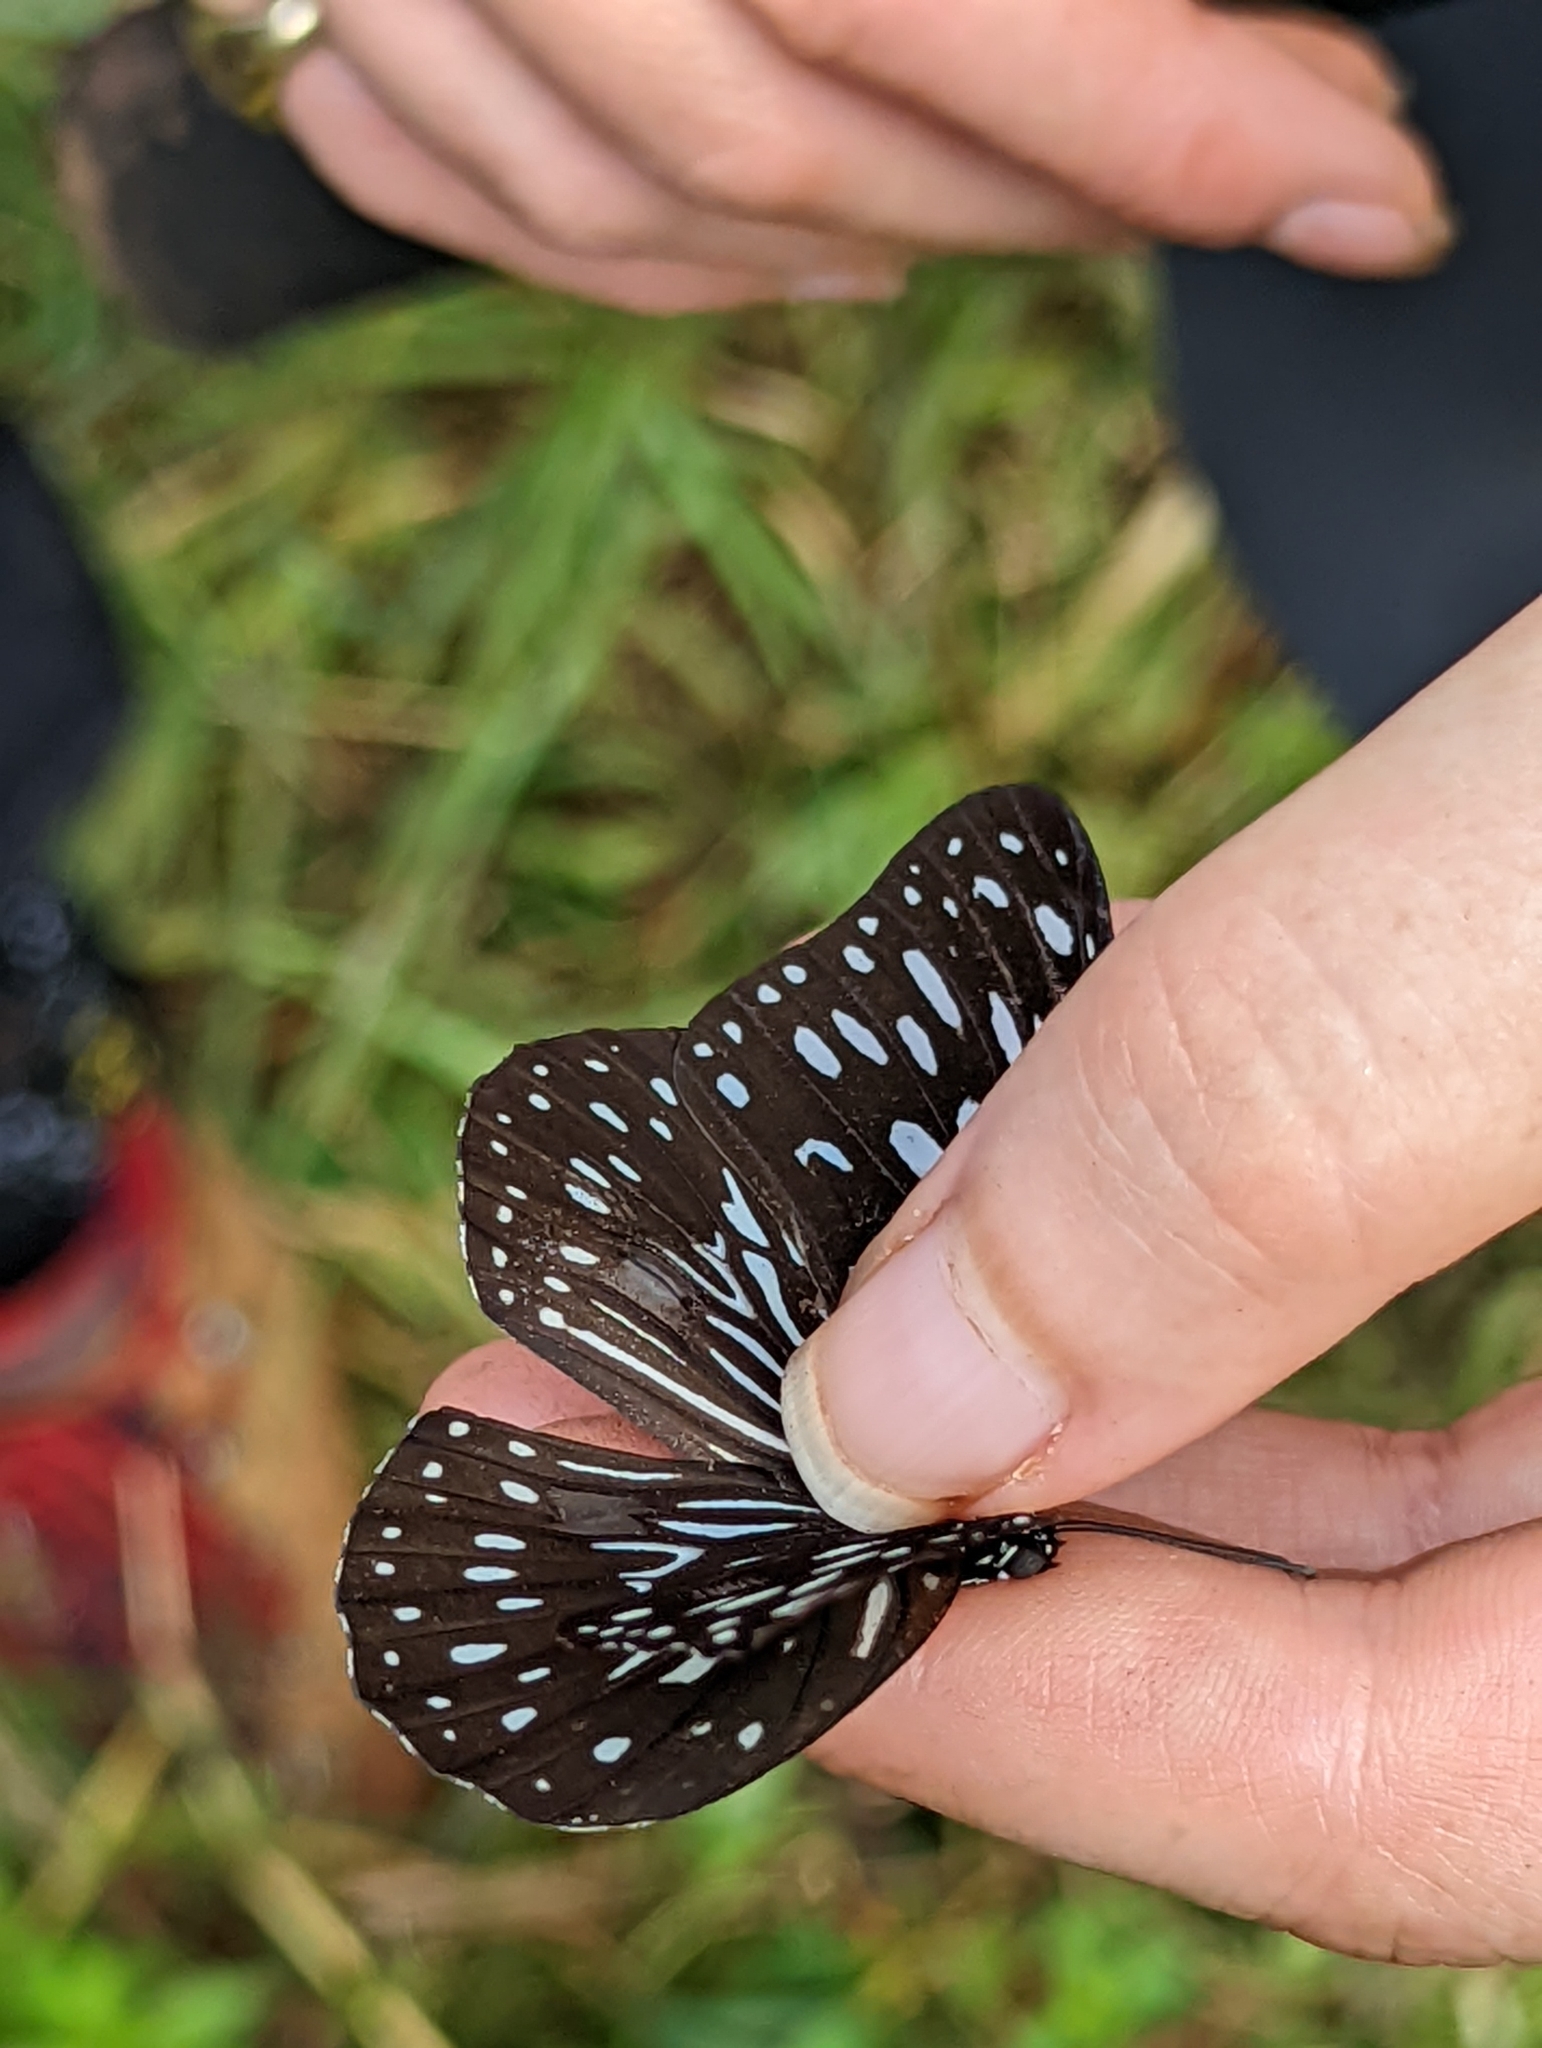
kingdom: Animalia
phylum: Arthropoda
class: Insecta
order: Lepidoptera
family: Nymphalidae
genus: Tirumala
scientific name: Tirumala hamata
